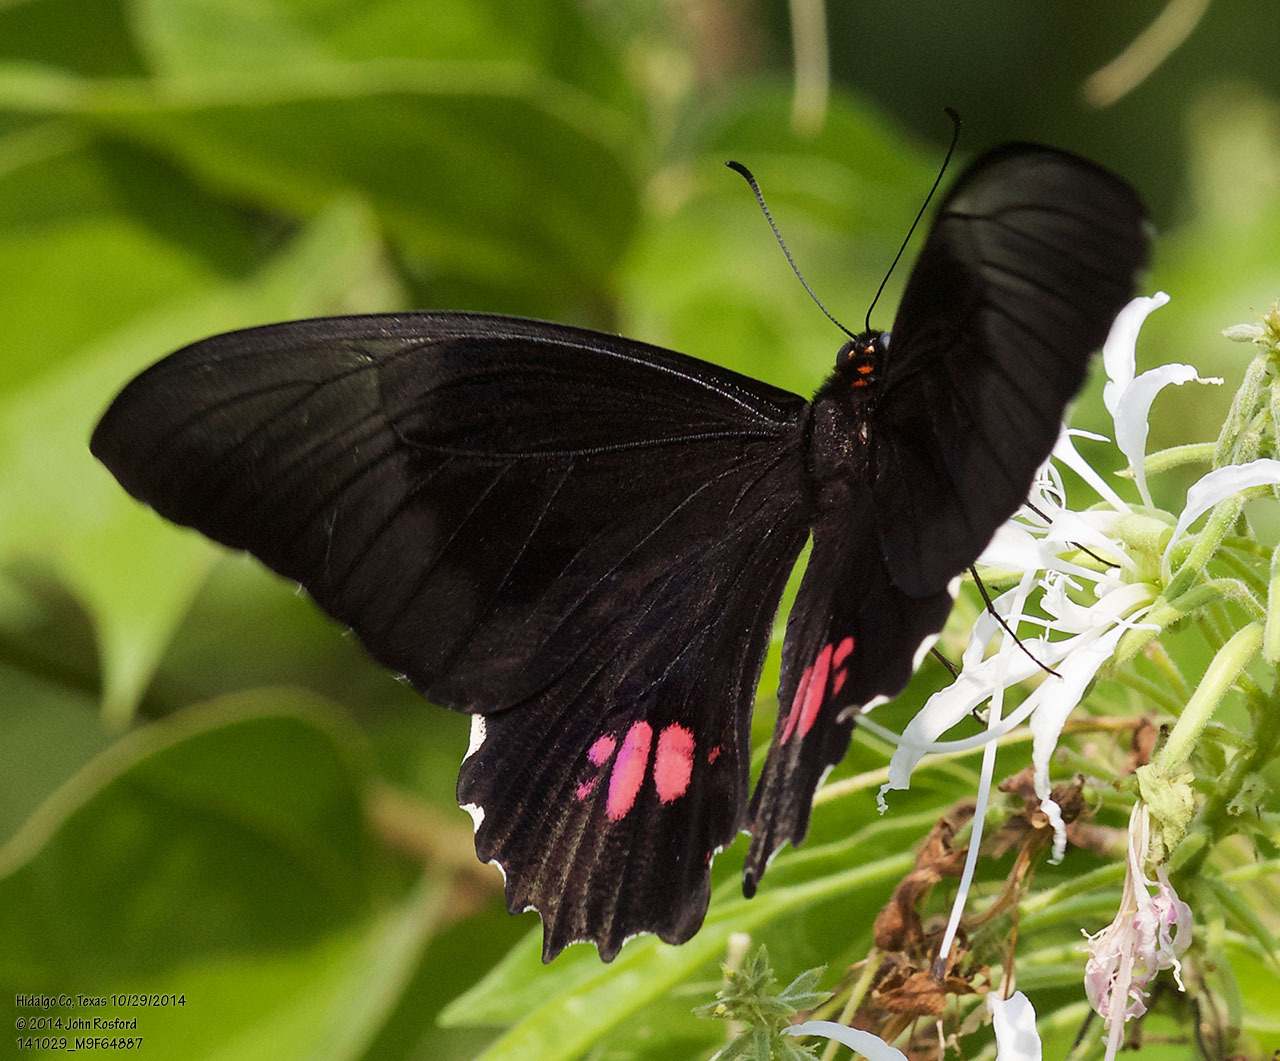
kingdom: Animalia
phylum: Arthropoda
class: Insecta
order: Lepidoptera
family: Papilionidae
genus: Papilio
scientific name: Papilio anchisiades
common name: Idaes swallowtail
